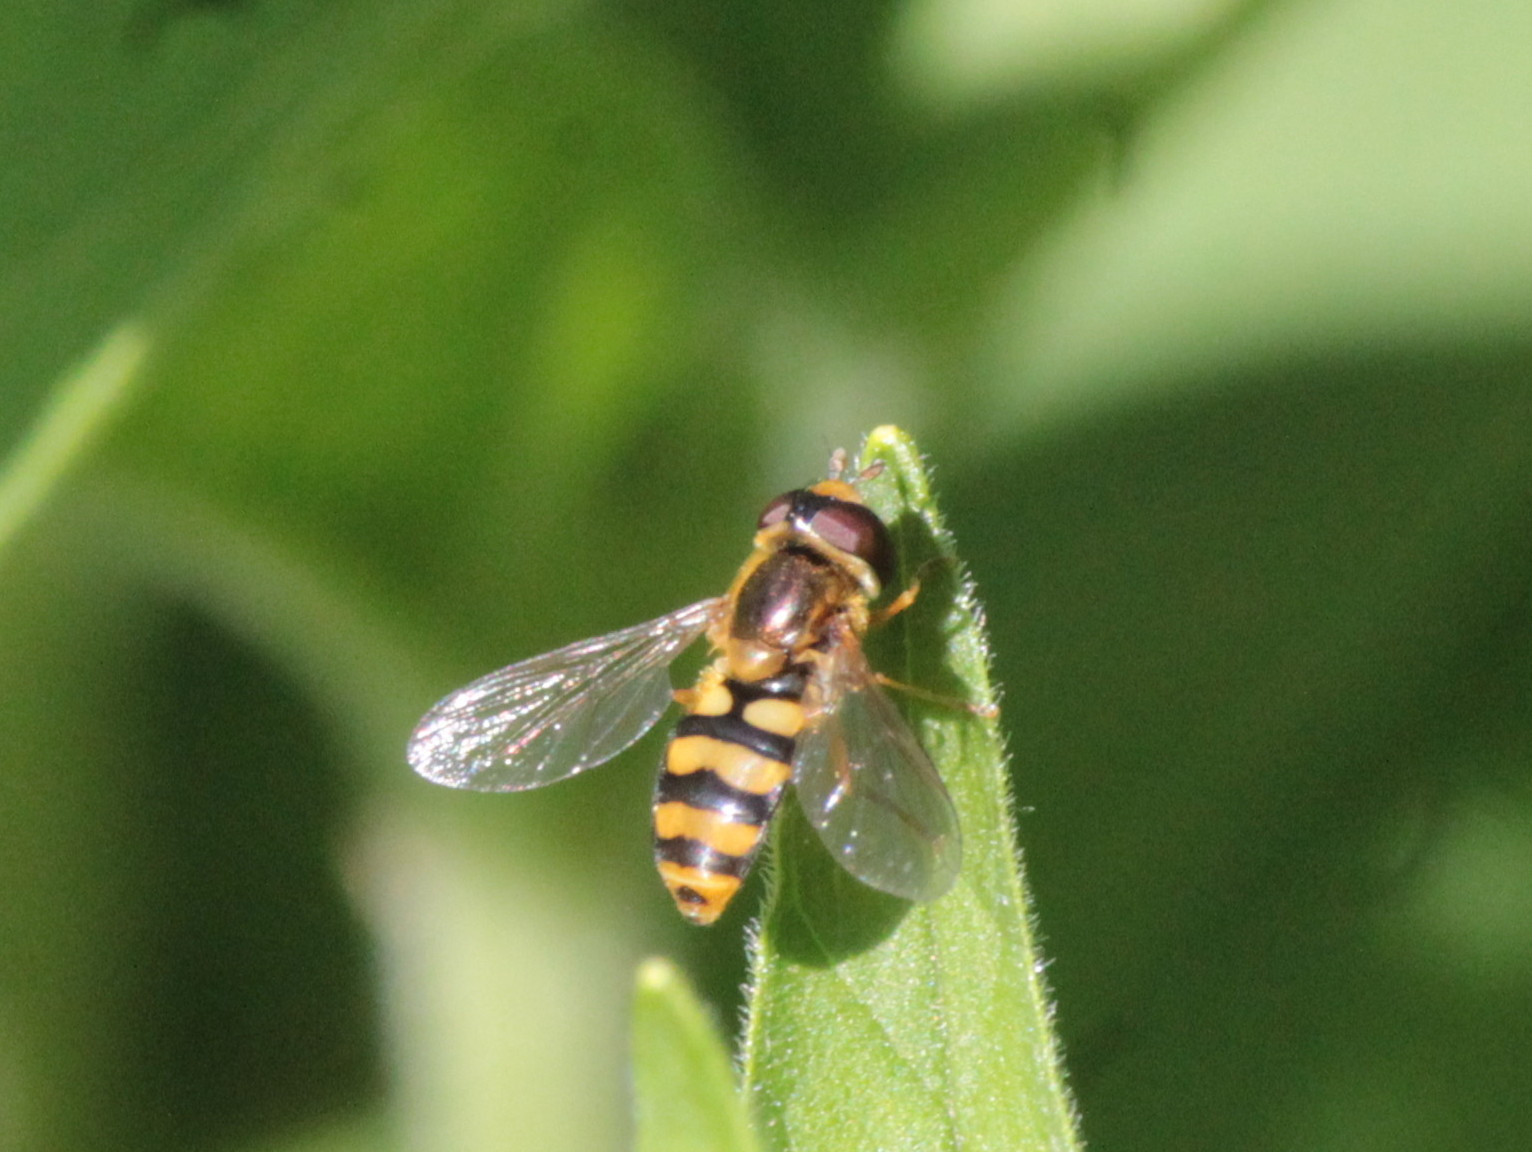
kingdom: Animalia
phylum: Arthropoda
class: Insecta
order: Diptera
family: Syrphidae
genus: Eupeodes
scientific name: Eupeodes latifasciatus
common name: Variable aphideater
